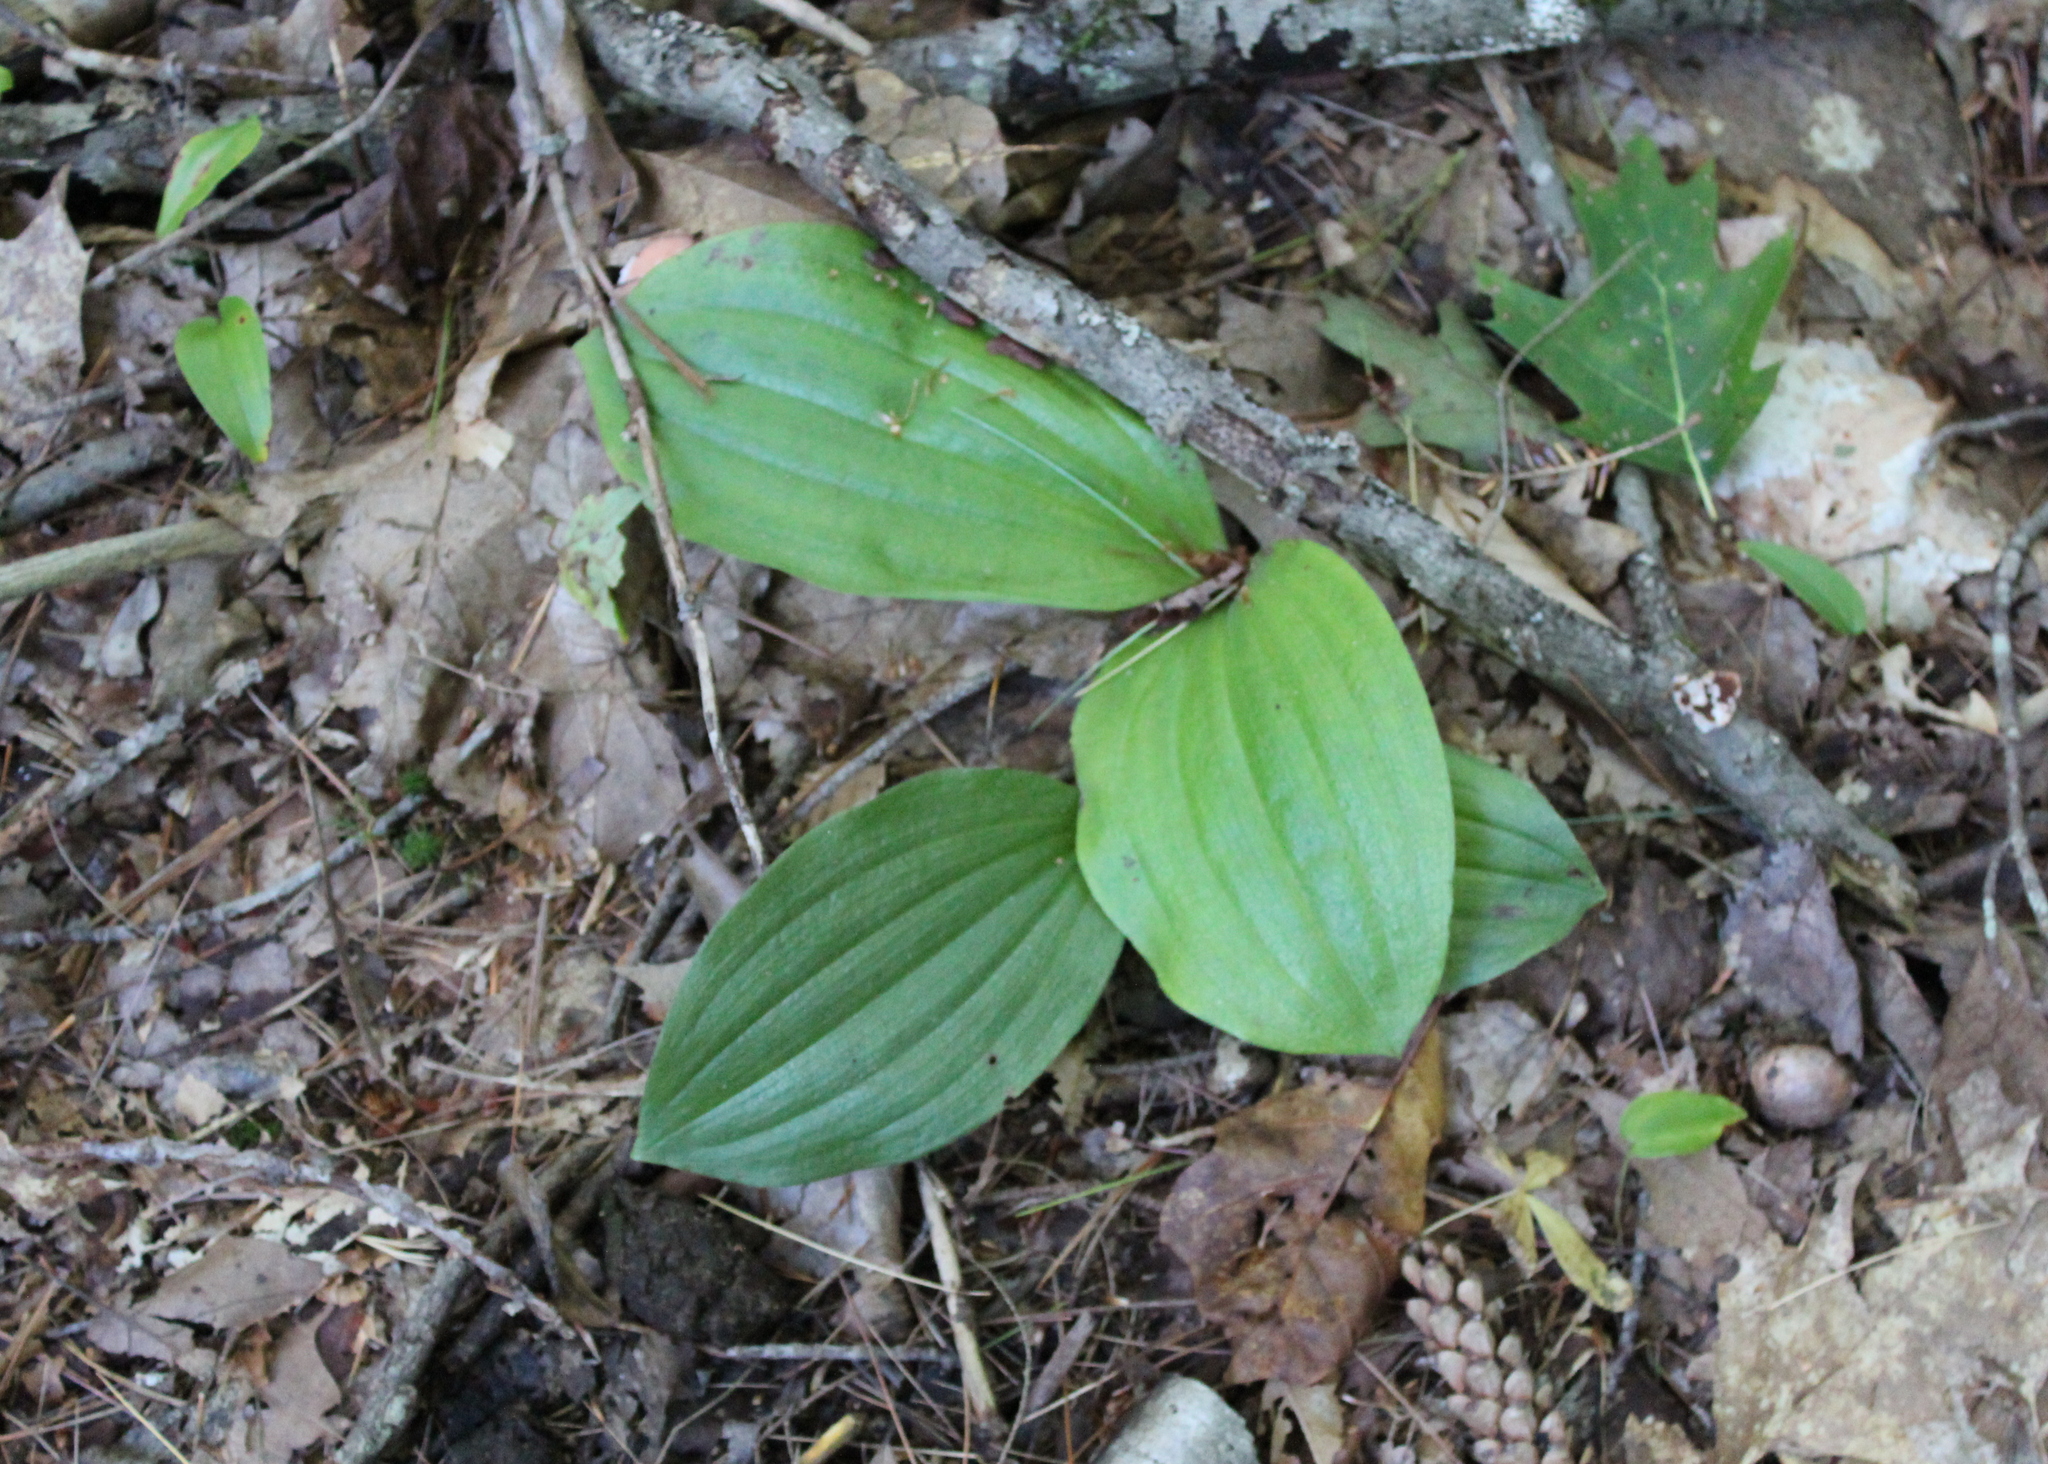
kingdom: Plantae
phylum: Tracheophyta
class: Liliopsida
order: Asparagales
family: Orchidaceae
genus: Cypripedium
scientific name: Cypripedium acaule
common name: Pink lady's-slipper
